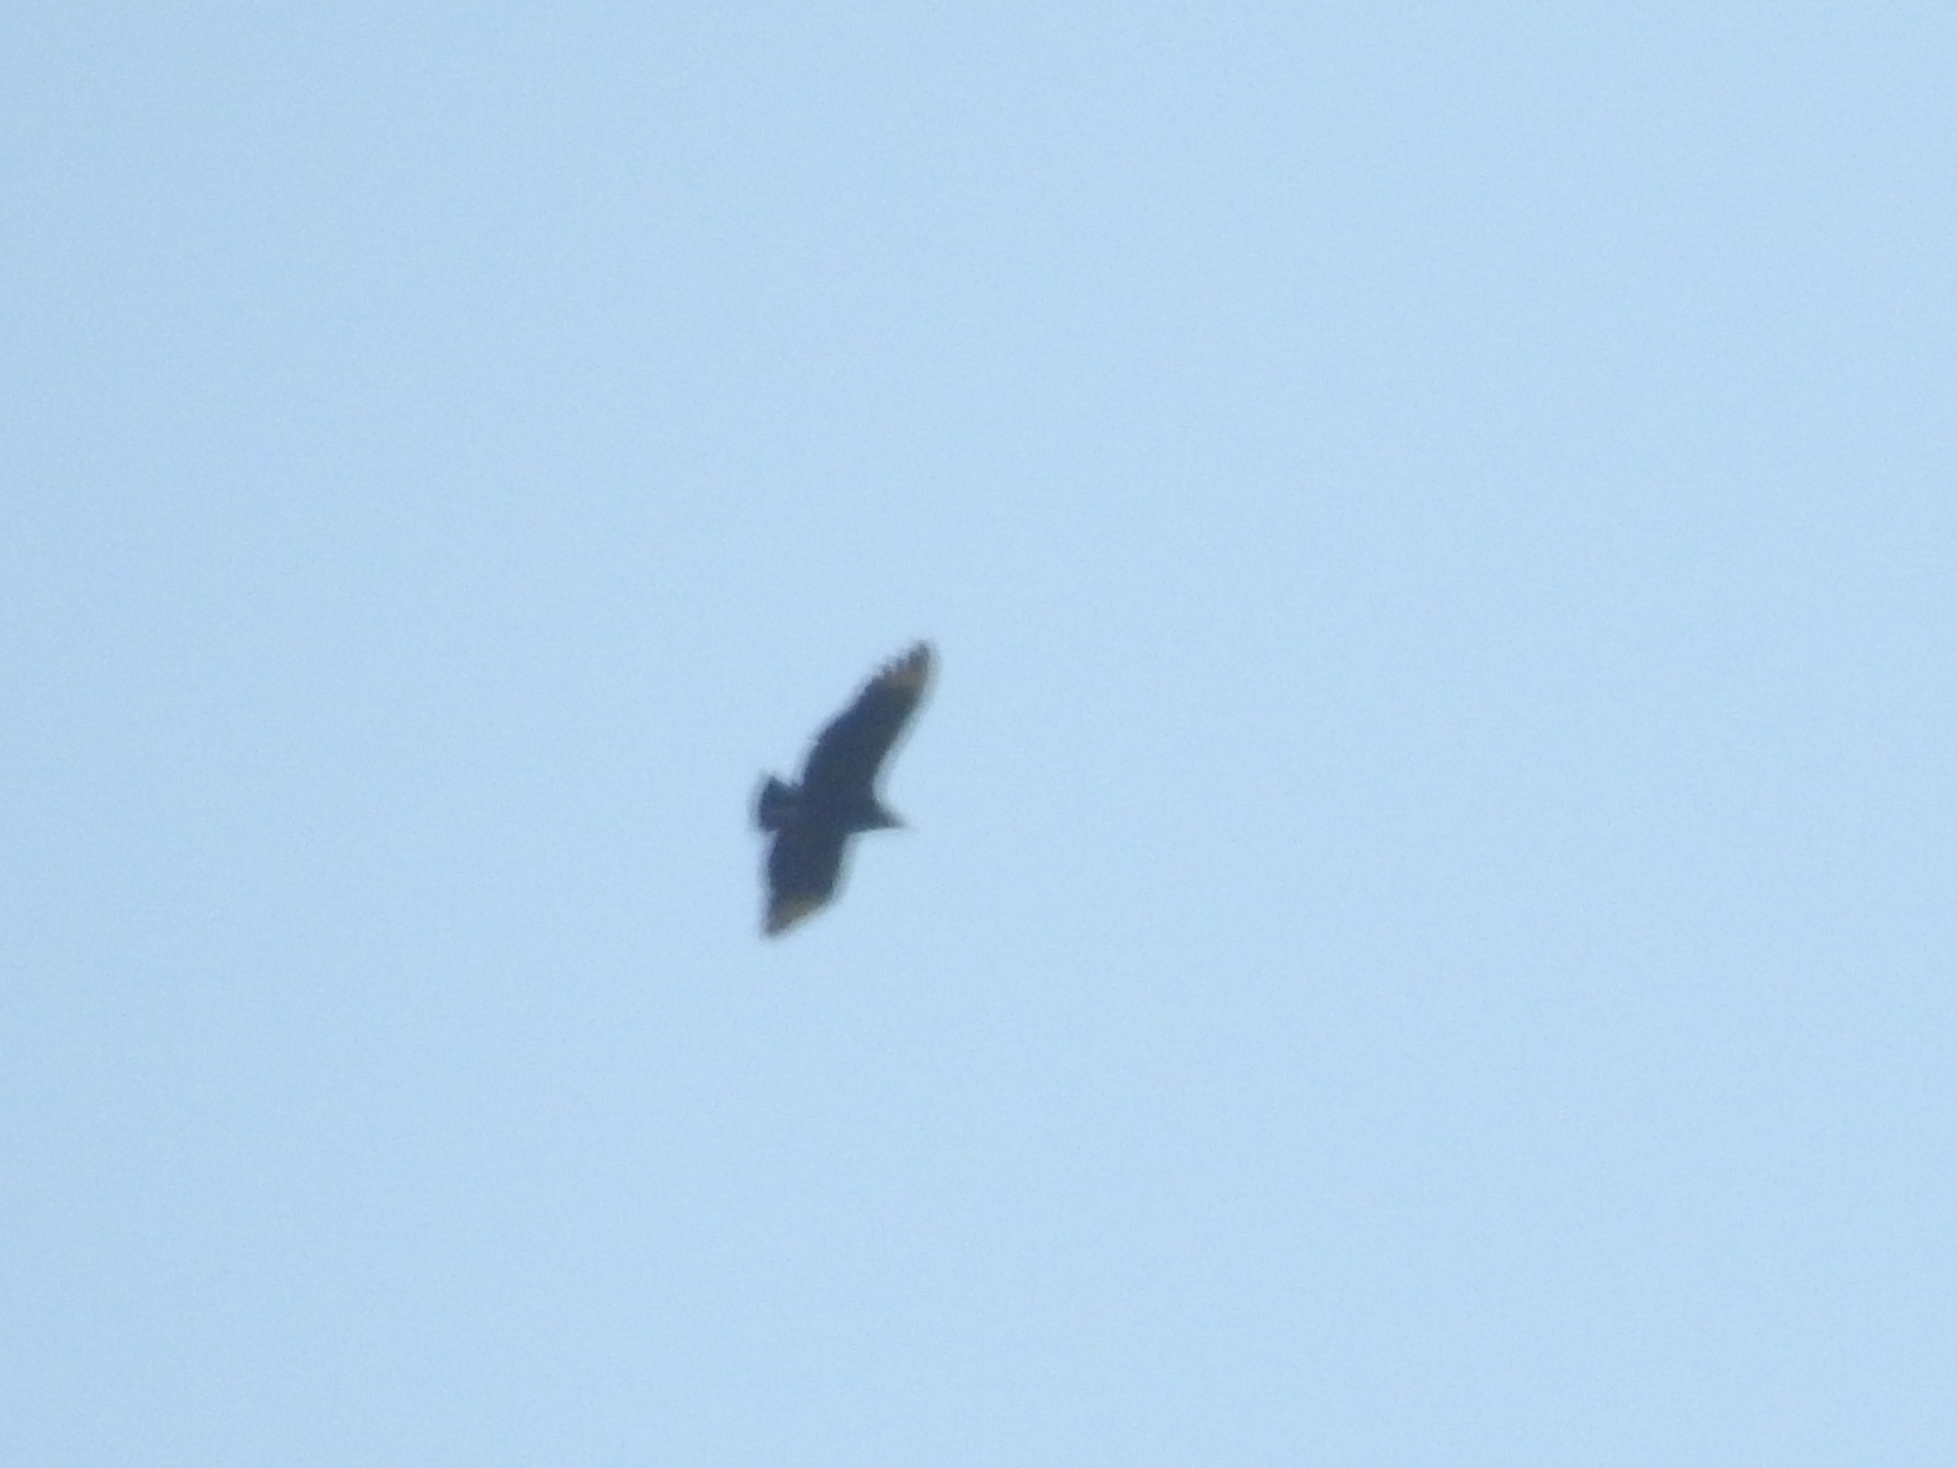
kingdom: Animalia
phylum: Chordata
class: Aves
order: Accipitriformes
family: Cathartidae
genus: Coragyps
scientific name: Coragyps atratus
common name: Black vulture
